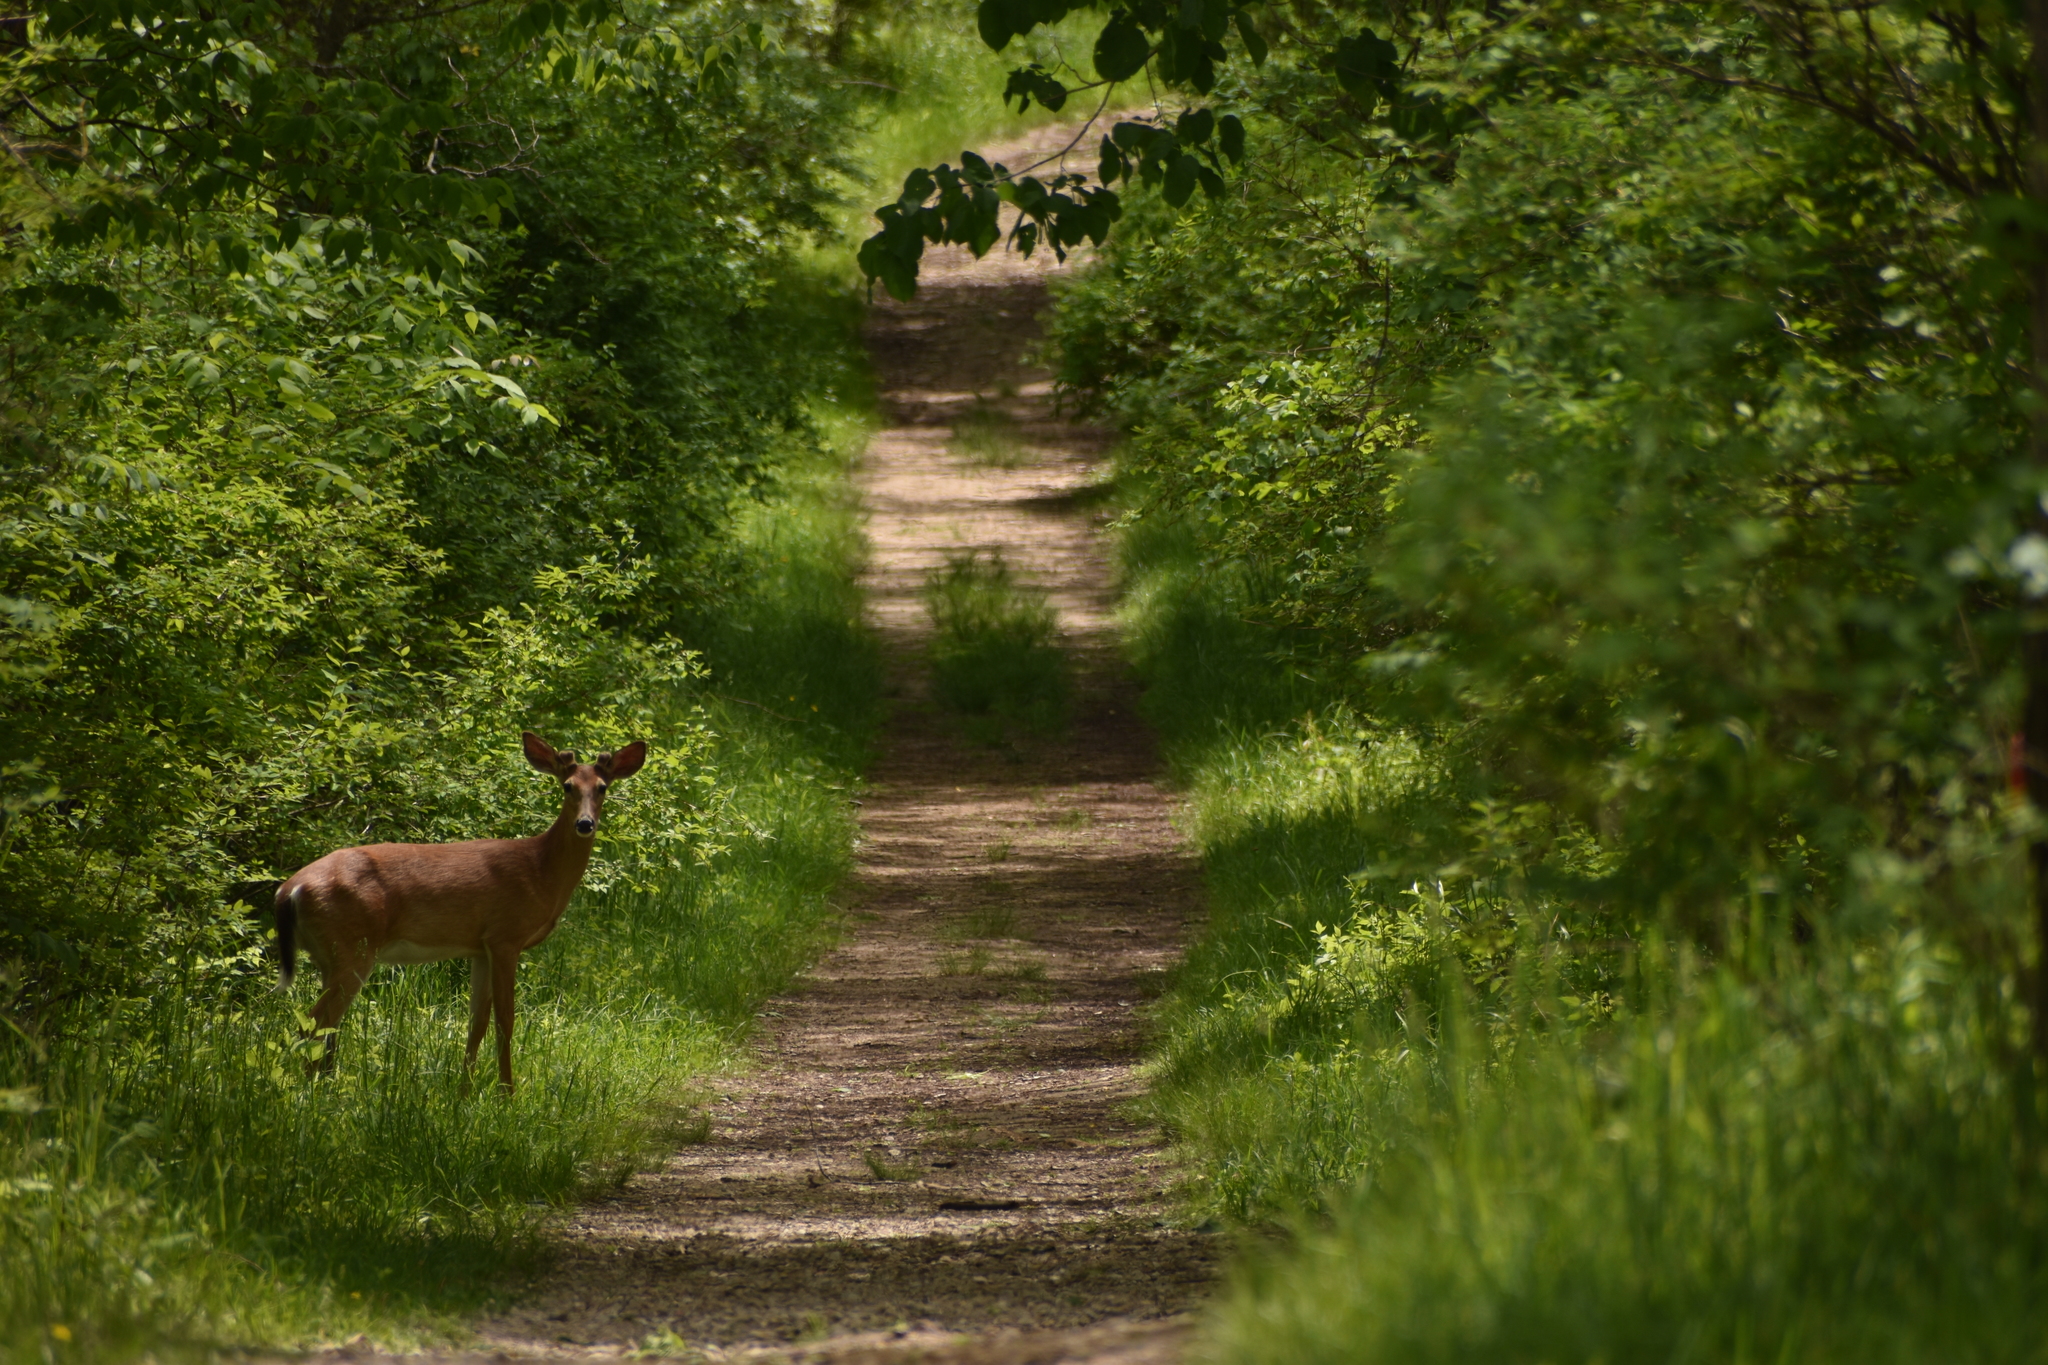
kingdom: Animalia
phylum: Chordata
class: Mammalia
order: Artiodactyla
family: Cervidae
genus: Odocoileus
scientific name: Odocoileus virginianus
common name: White-tailed deer
